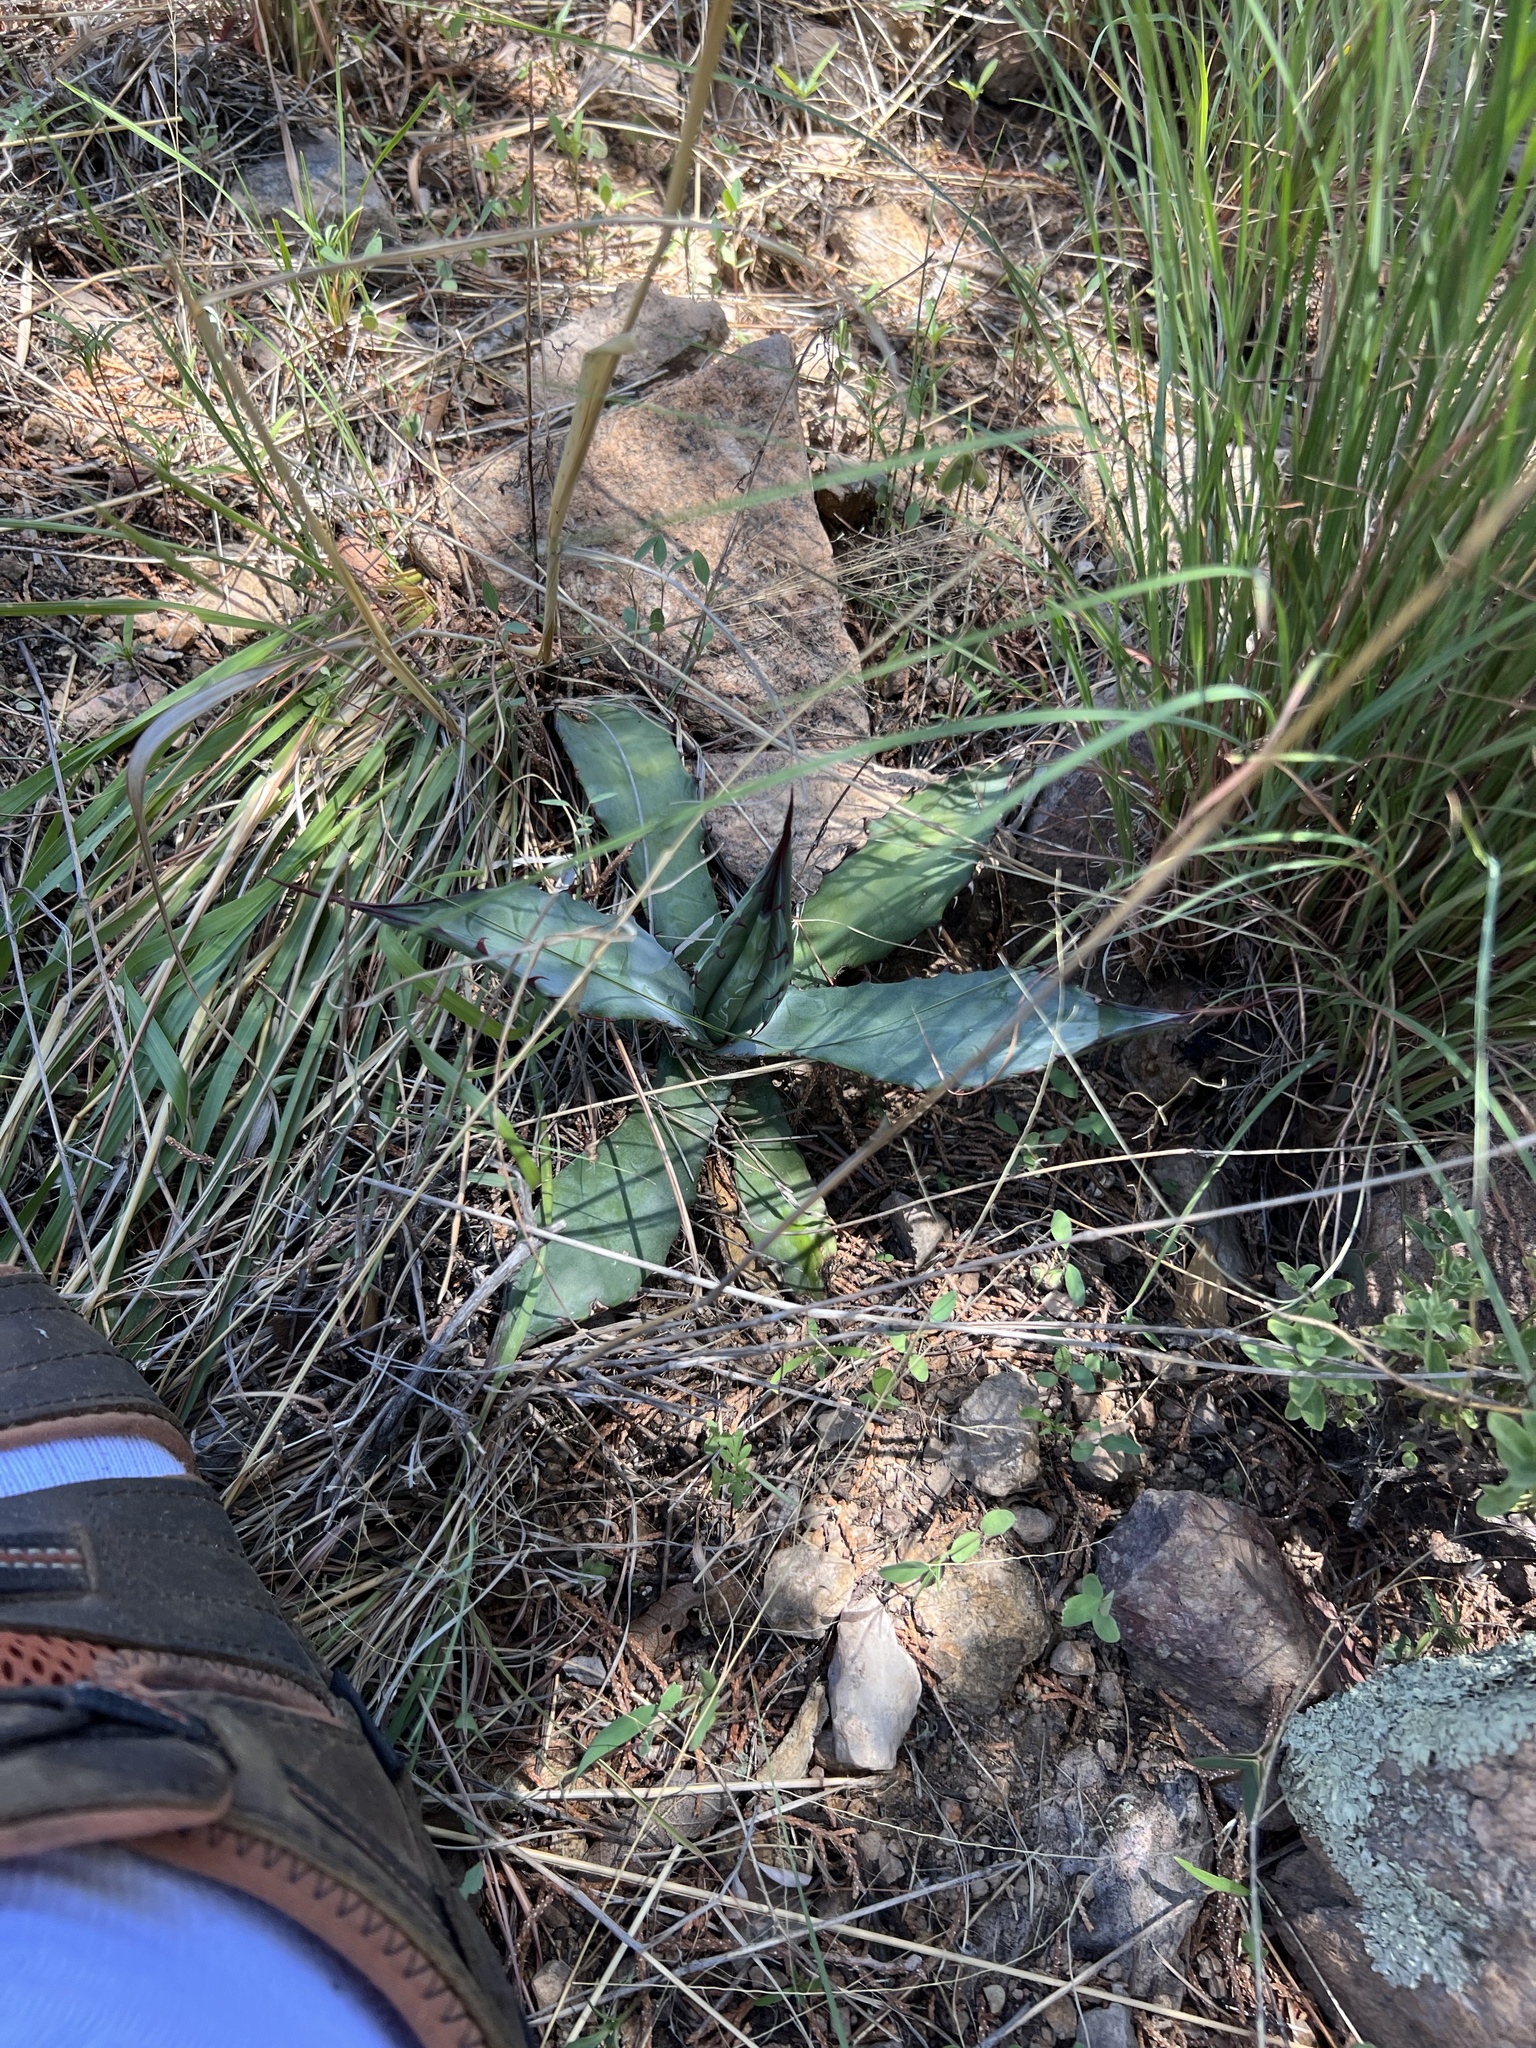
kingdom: Plantae
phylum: Tracheophyta
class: Liliopsida
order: Asparagales
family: Asparagaceae
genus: Agave
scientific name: Agave palmeri
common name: Palmer agave
